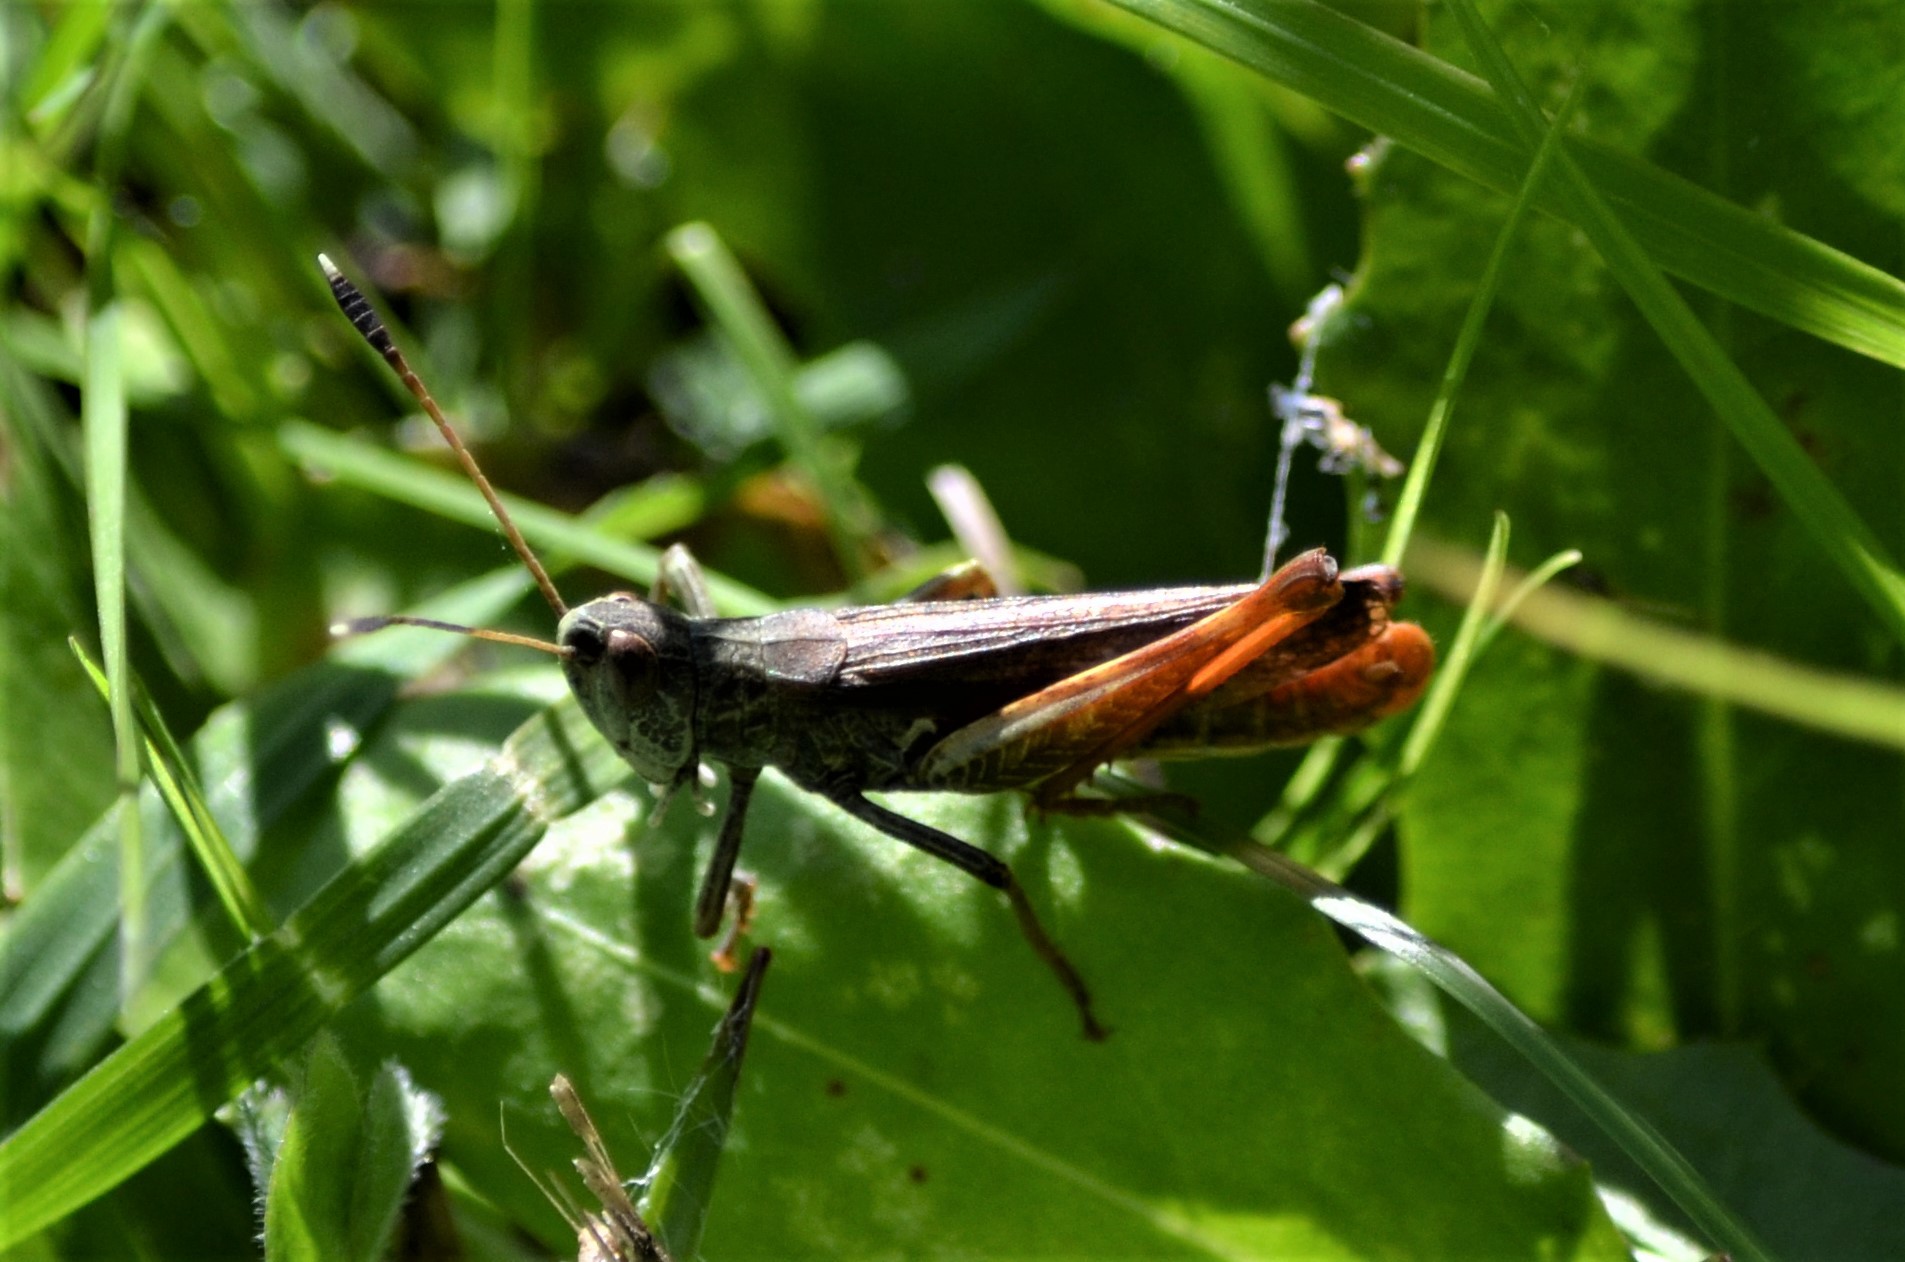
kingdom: Animalia
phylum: Arthropoda
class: Insecta
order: Orthoptera
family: Acrididae
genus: Gomphocerippus
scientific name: Gomphocerippus rufus
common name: Rufous grasshopper
